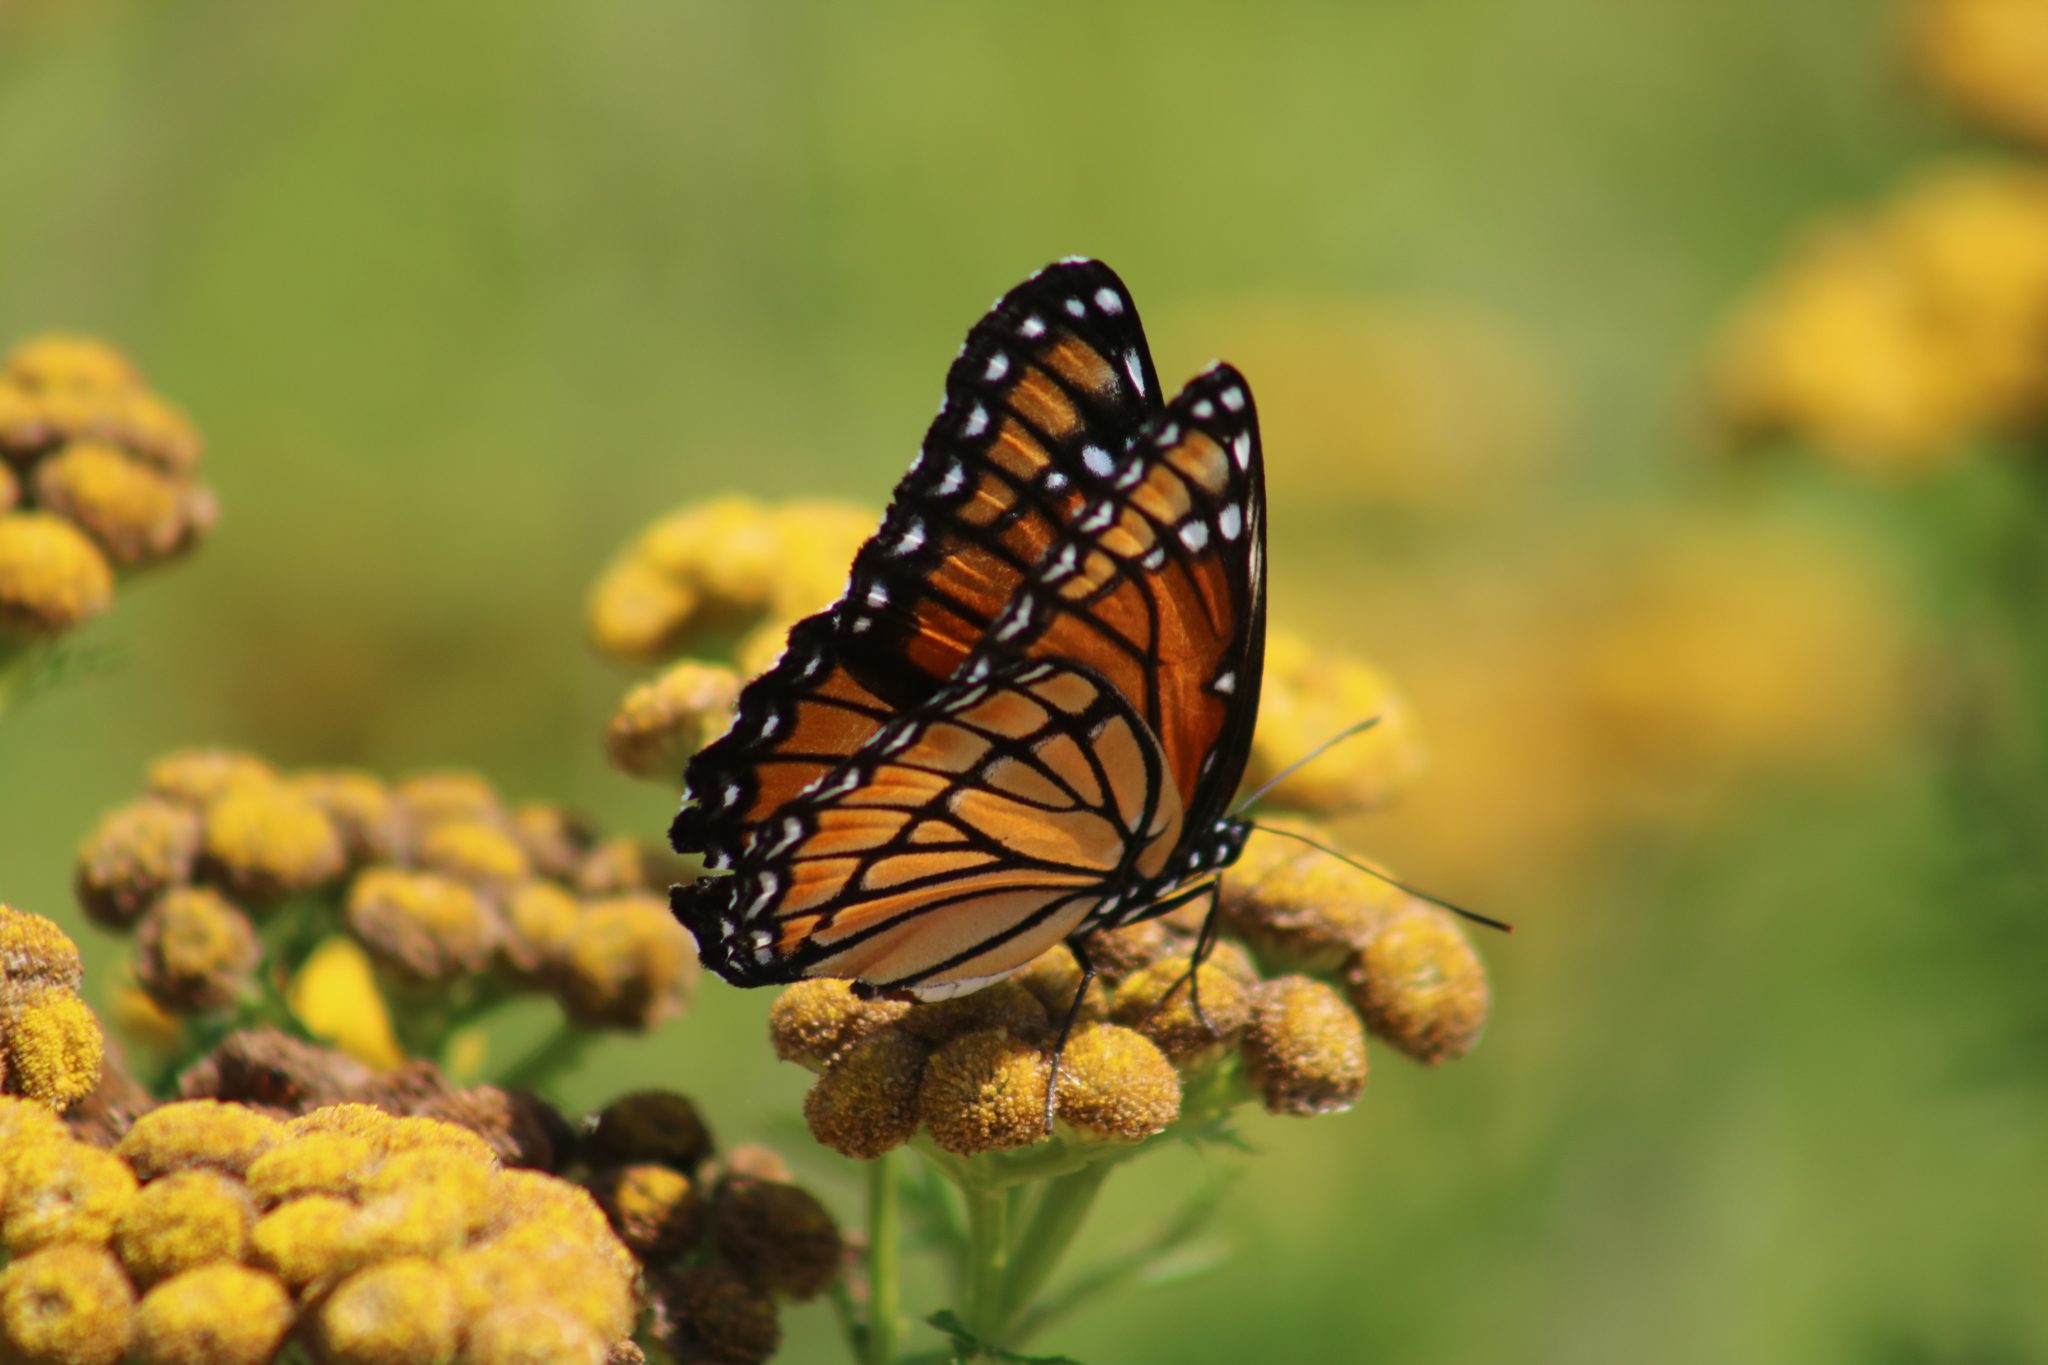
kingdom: Animalia
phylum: Arthropoda
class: Insecta
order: Lepidoptera
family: Nymphalidae
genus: Limenitis
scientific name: Limenitis archippus
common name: Viceroy
